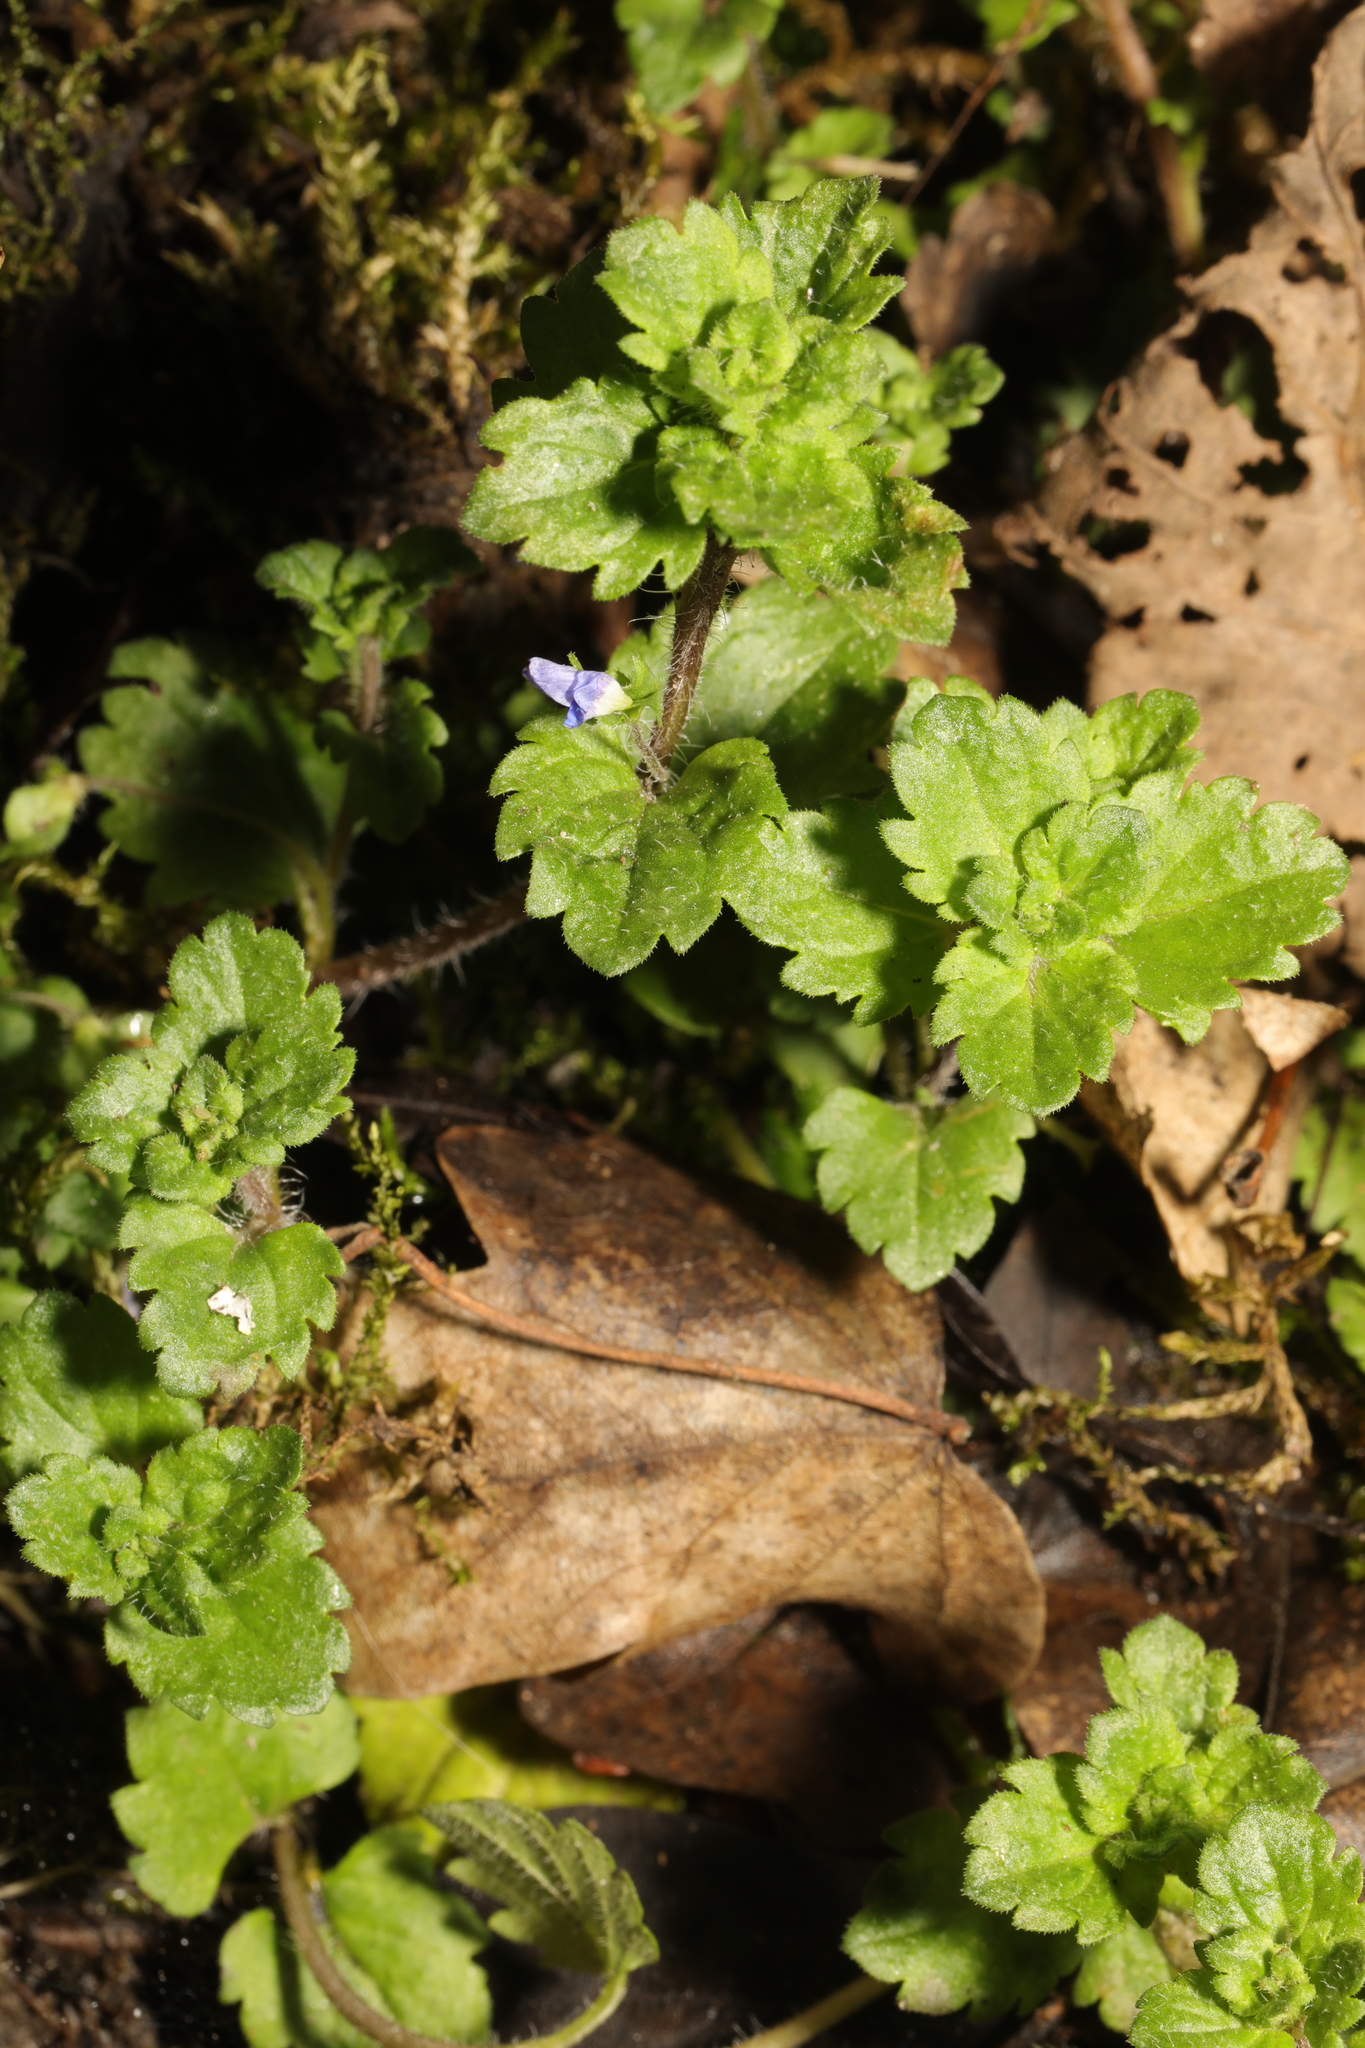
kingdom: Plantae
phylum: Tracheophyta
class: Magnoliopsida
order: Lamiales
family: Plantaginaceae
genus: Veronica
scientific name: Veronica persica
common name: Common field-speedwell
